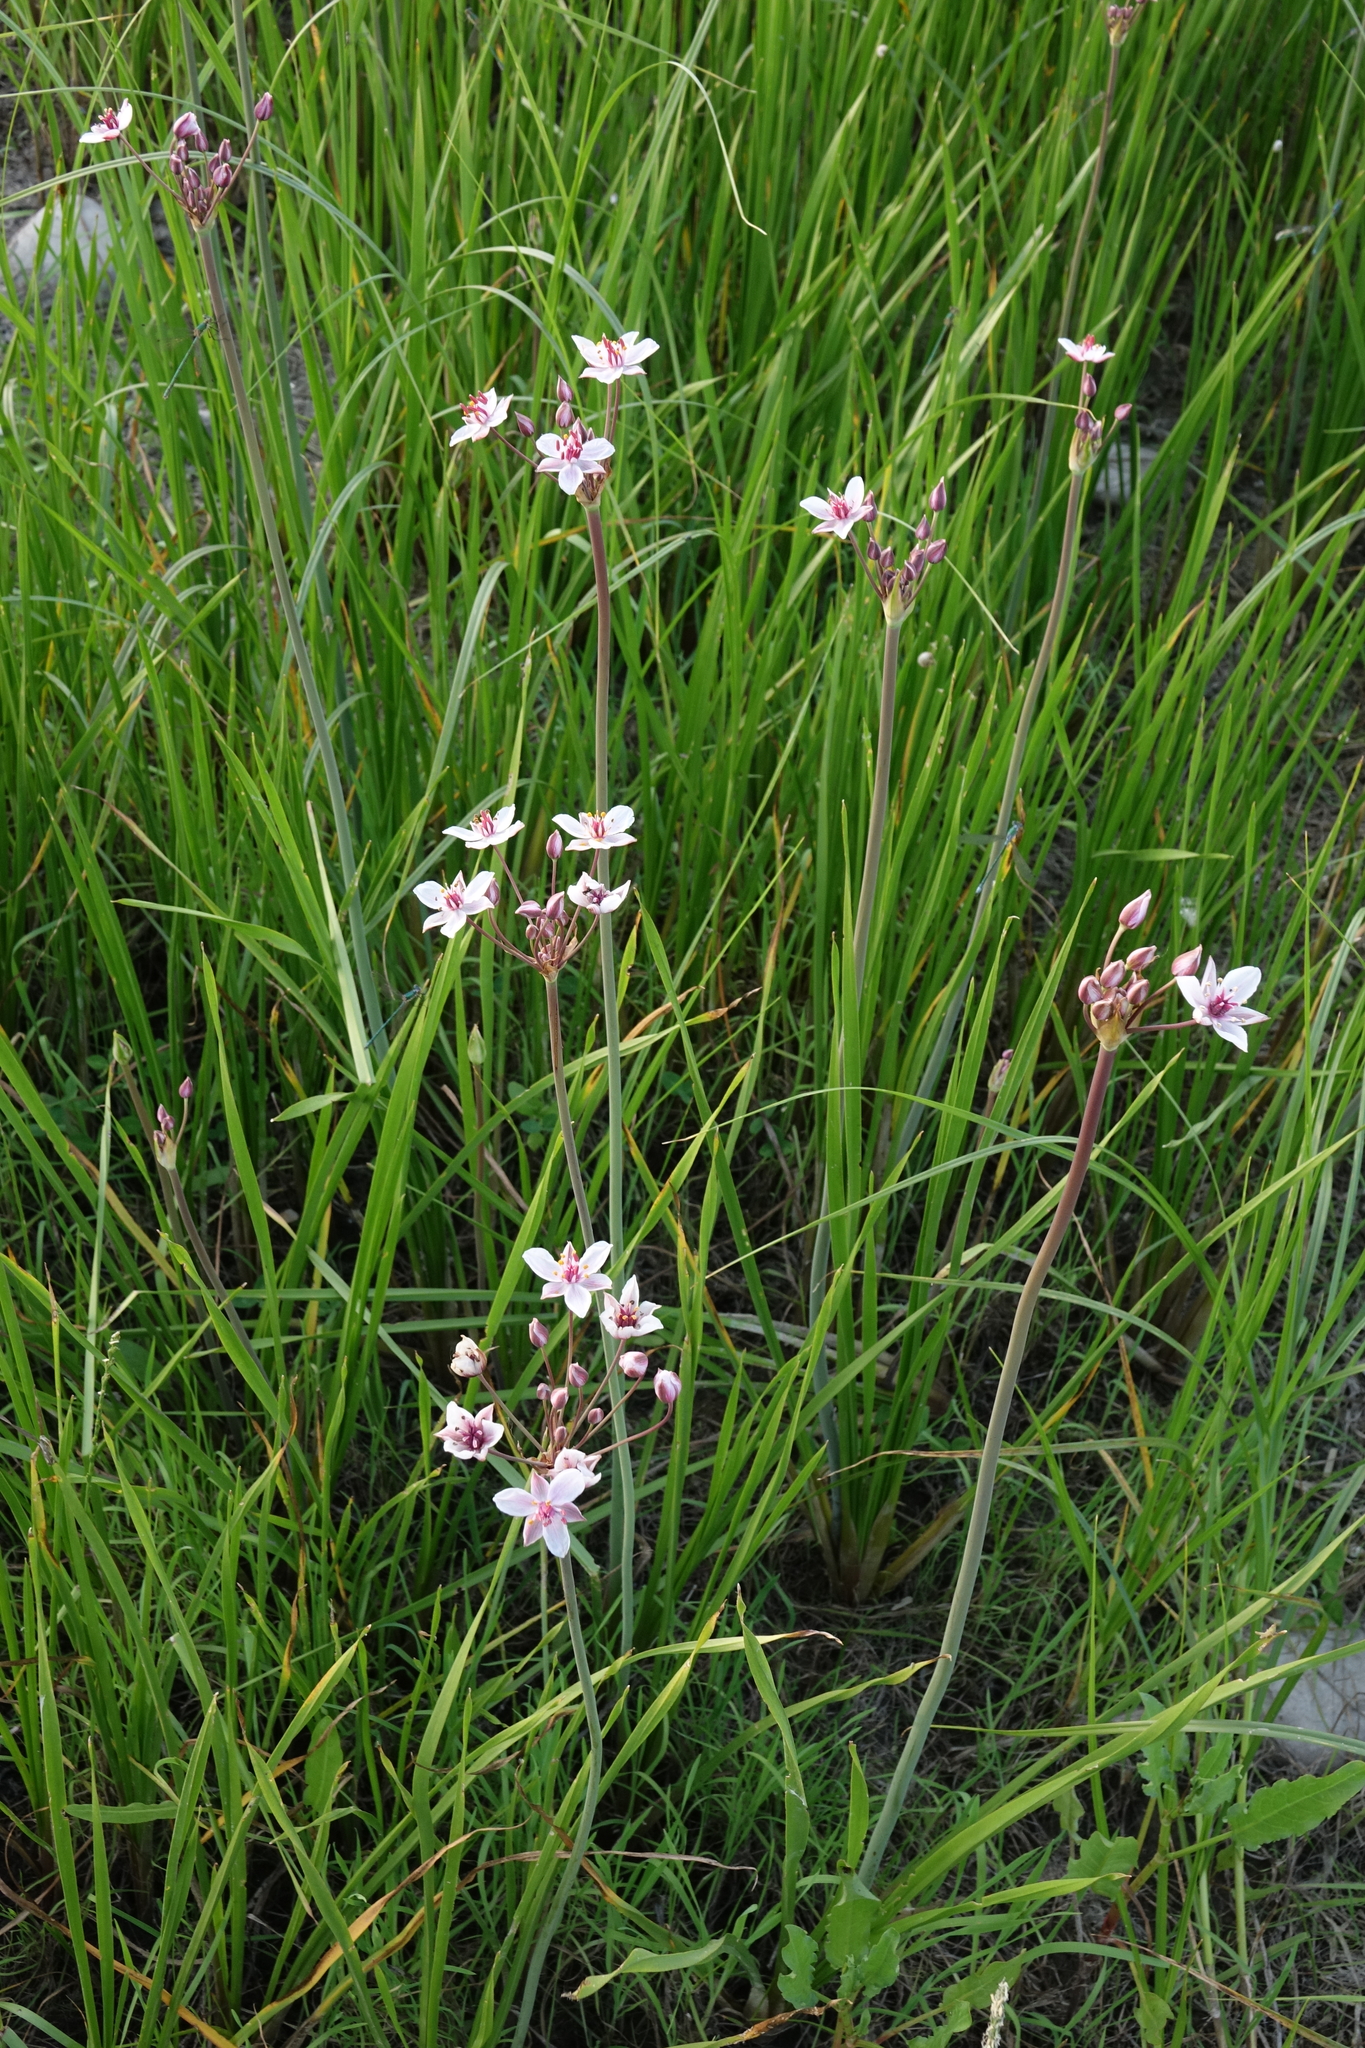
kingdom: Plantae
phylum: Tracheophyta
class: Liliopsida
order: Alismatales
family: Butomaceae
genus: Butomus
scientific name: Butomus umbellatus
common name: Flowering-rush
